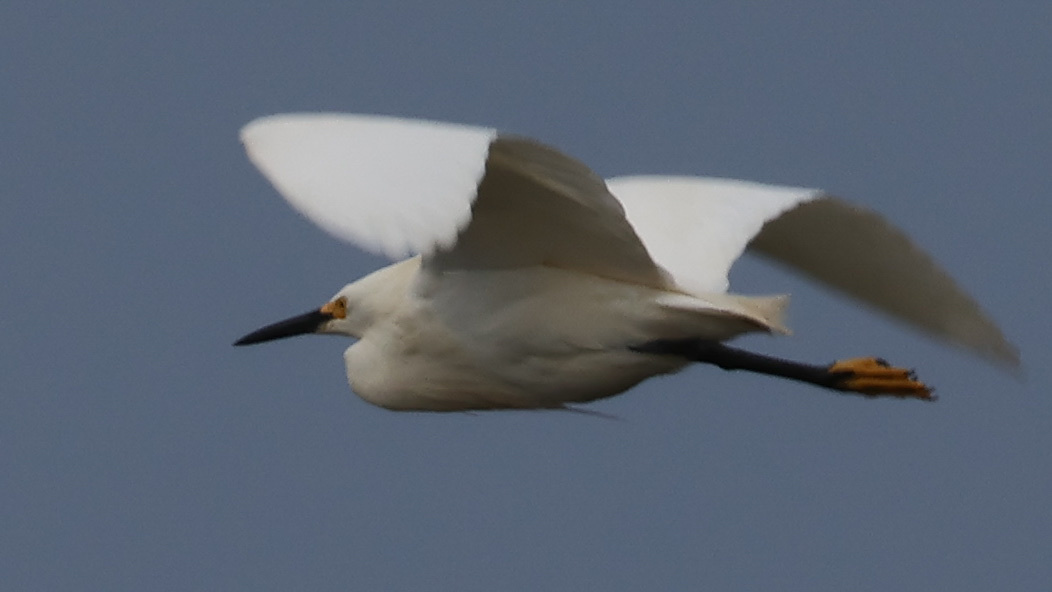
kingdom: Animalia
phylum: Chordata
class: Aves
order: Pelecaniformes
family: Ardeidae
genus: Egretta
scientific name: Egretta thula
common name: Snowy egret
